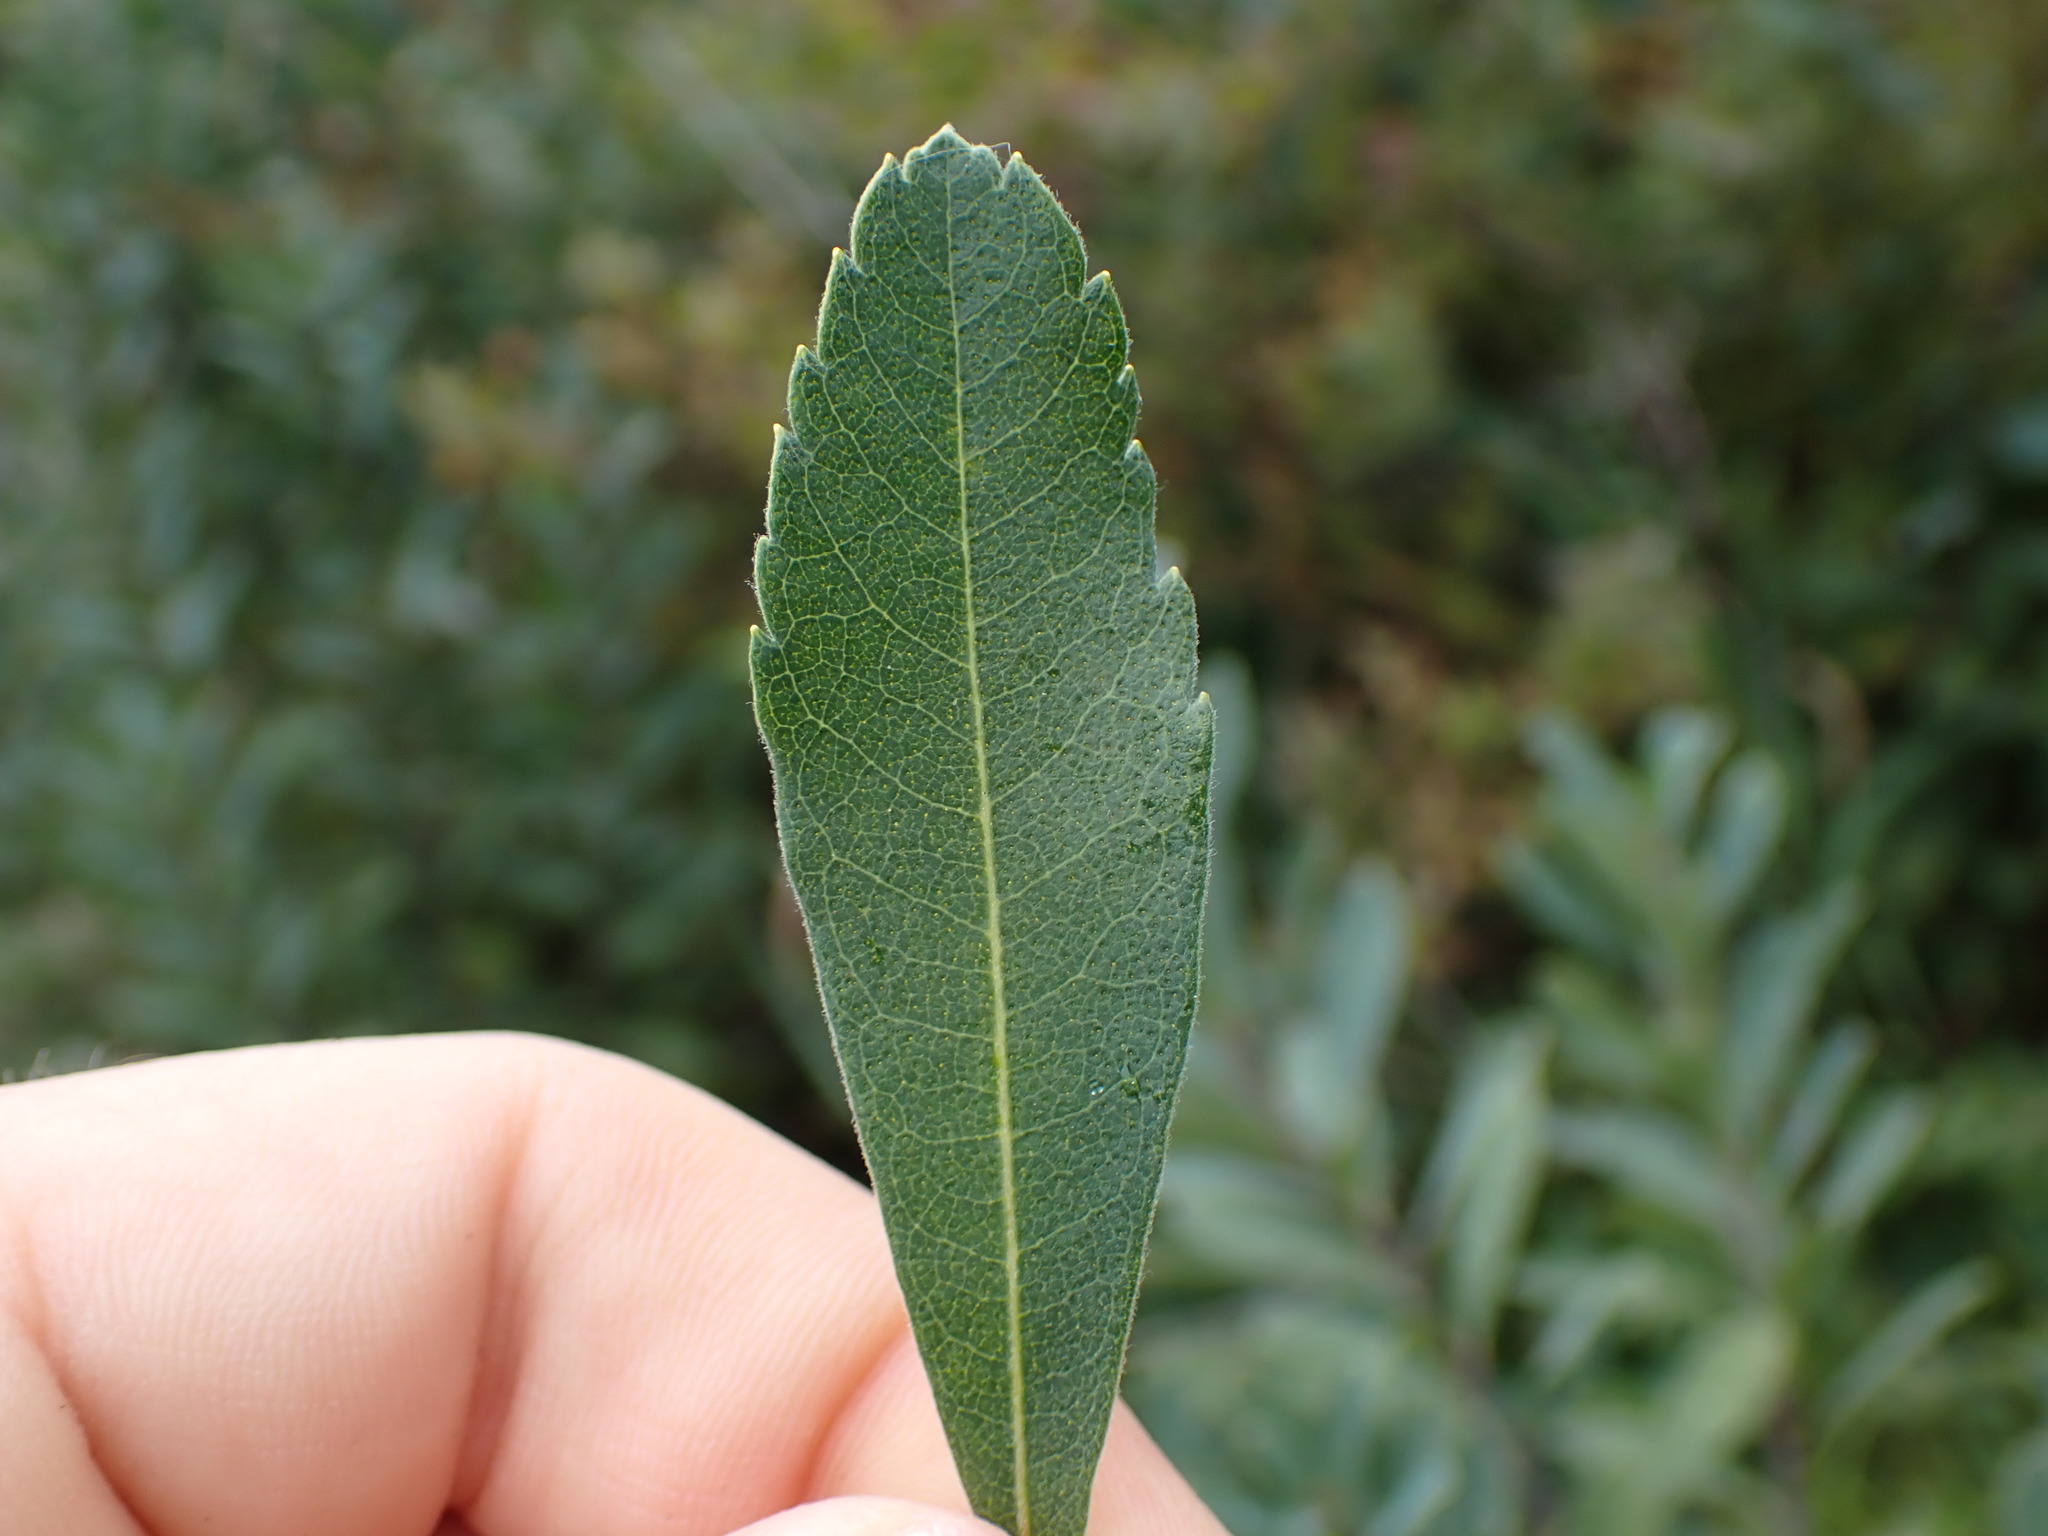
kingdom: Plantae
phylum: Tracheophyta
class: Magnoliopsida
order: Fagales
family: Myricaceae
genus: Myrica
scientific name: Myrica gale
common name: Sweet gale
